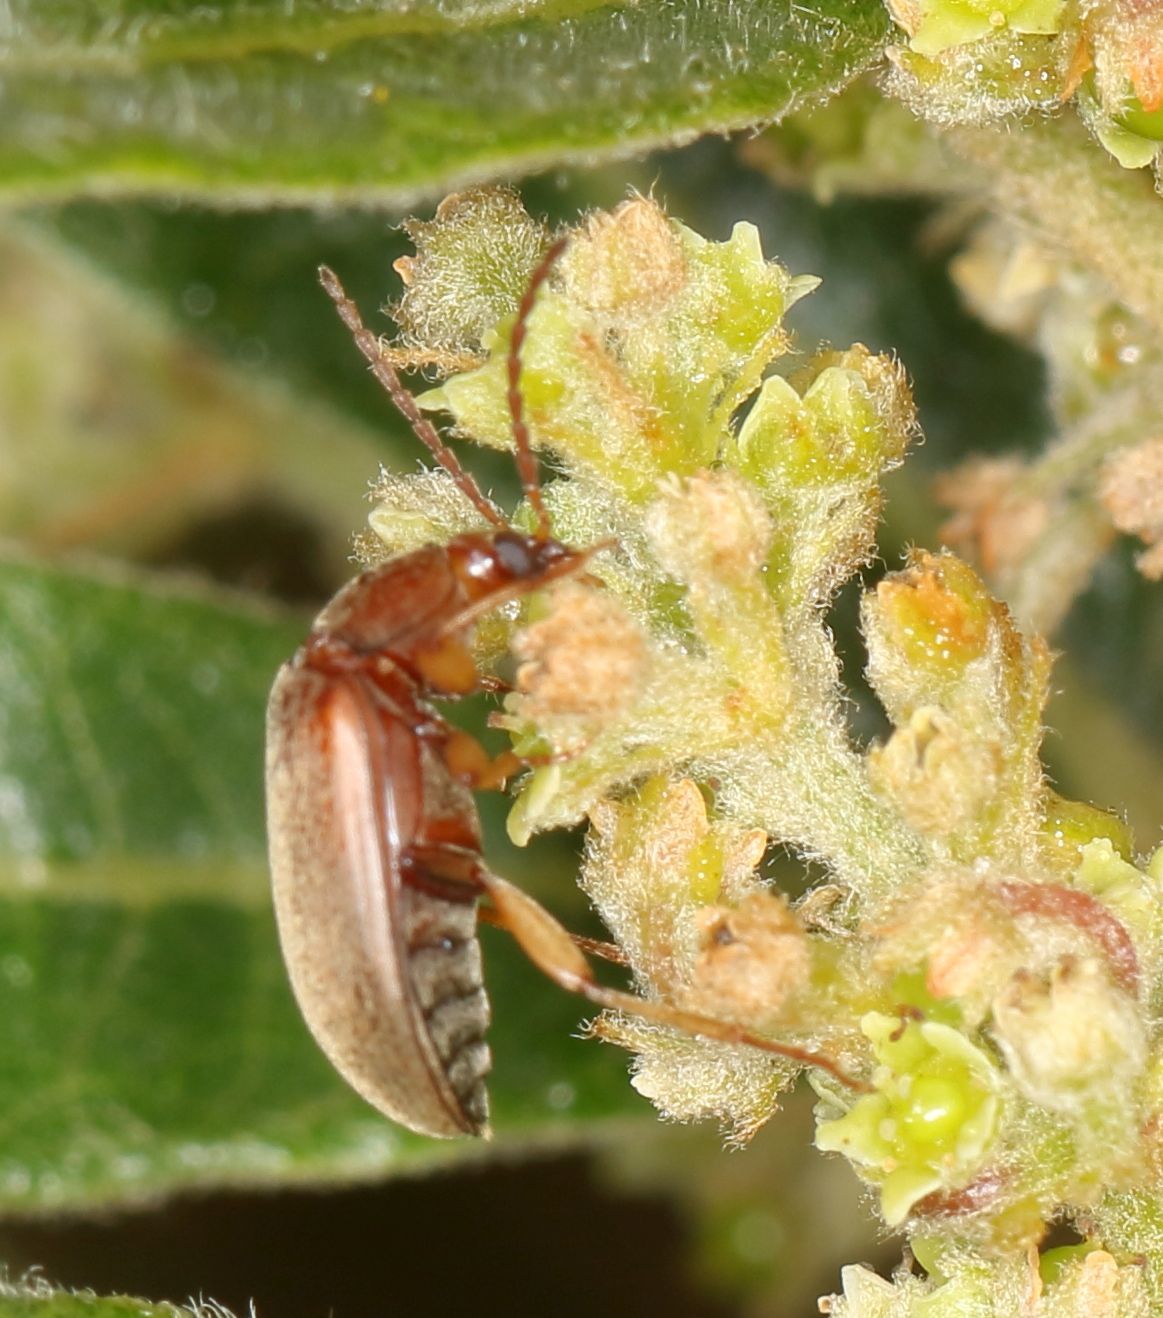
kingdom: Plantae
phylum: Tracheophyta
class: Magnoliopsida
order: Sapindales
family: Anacardiaceae
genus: Searsia
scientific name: Searsia discolor
